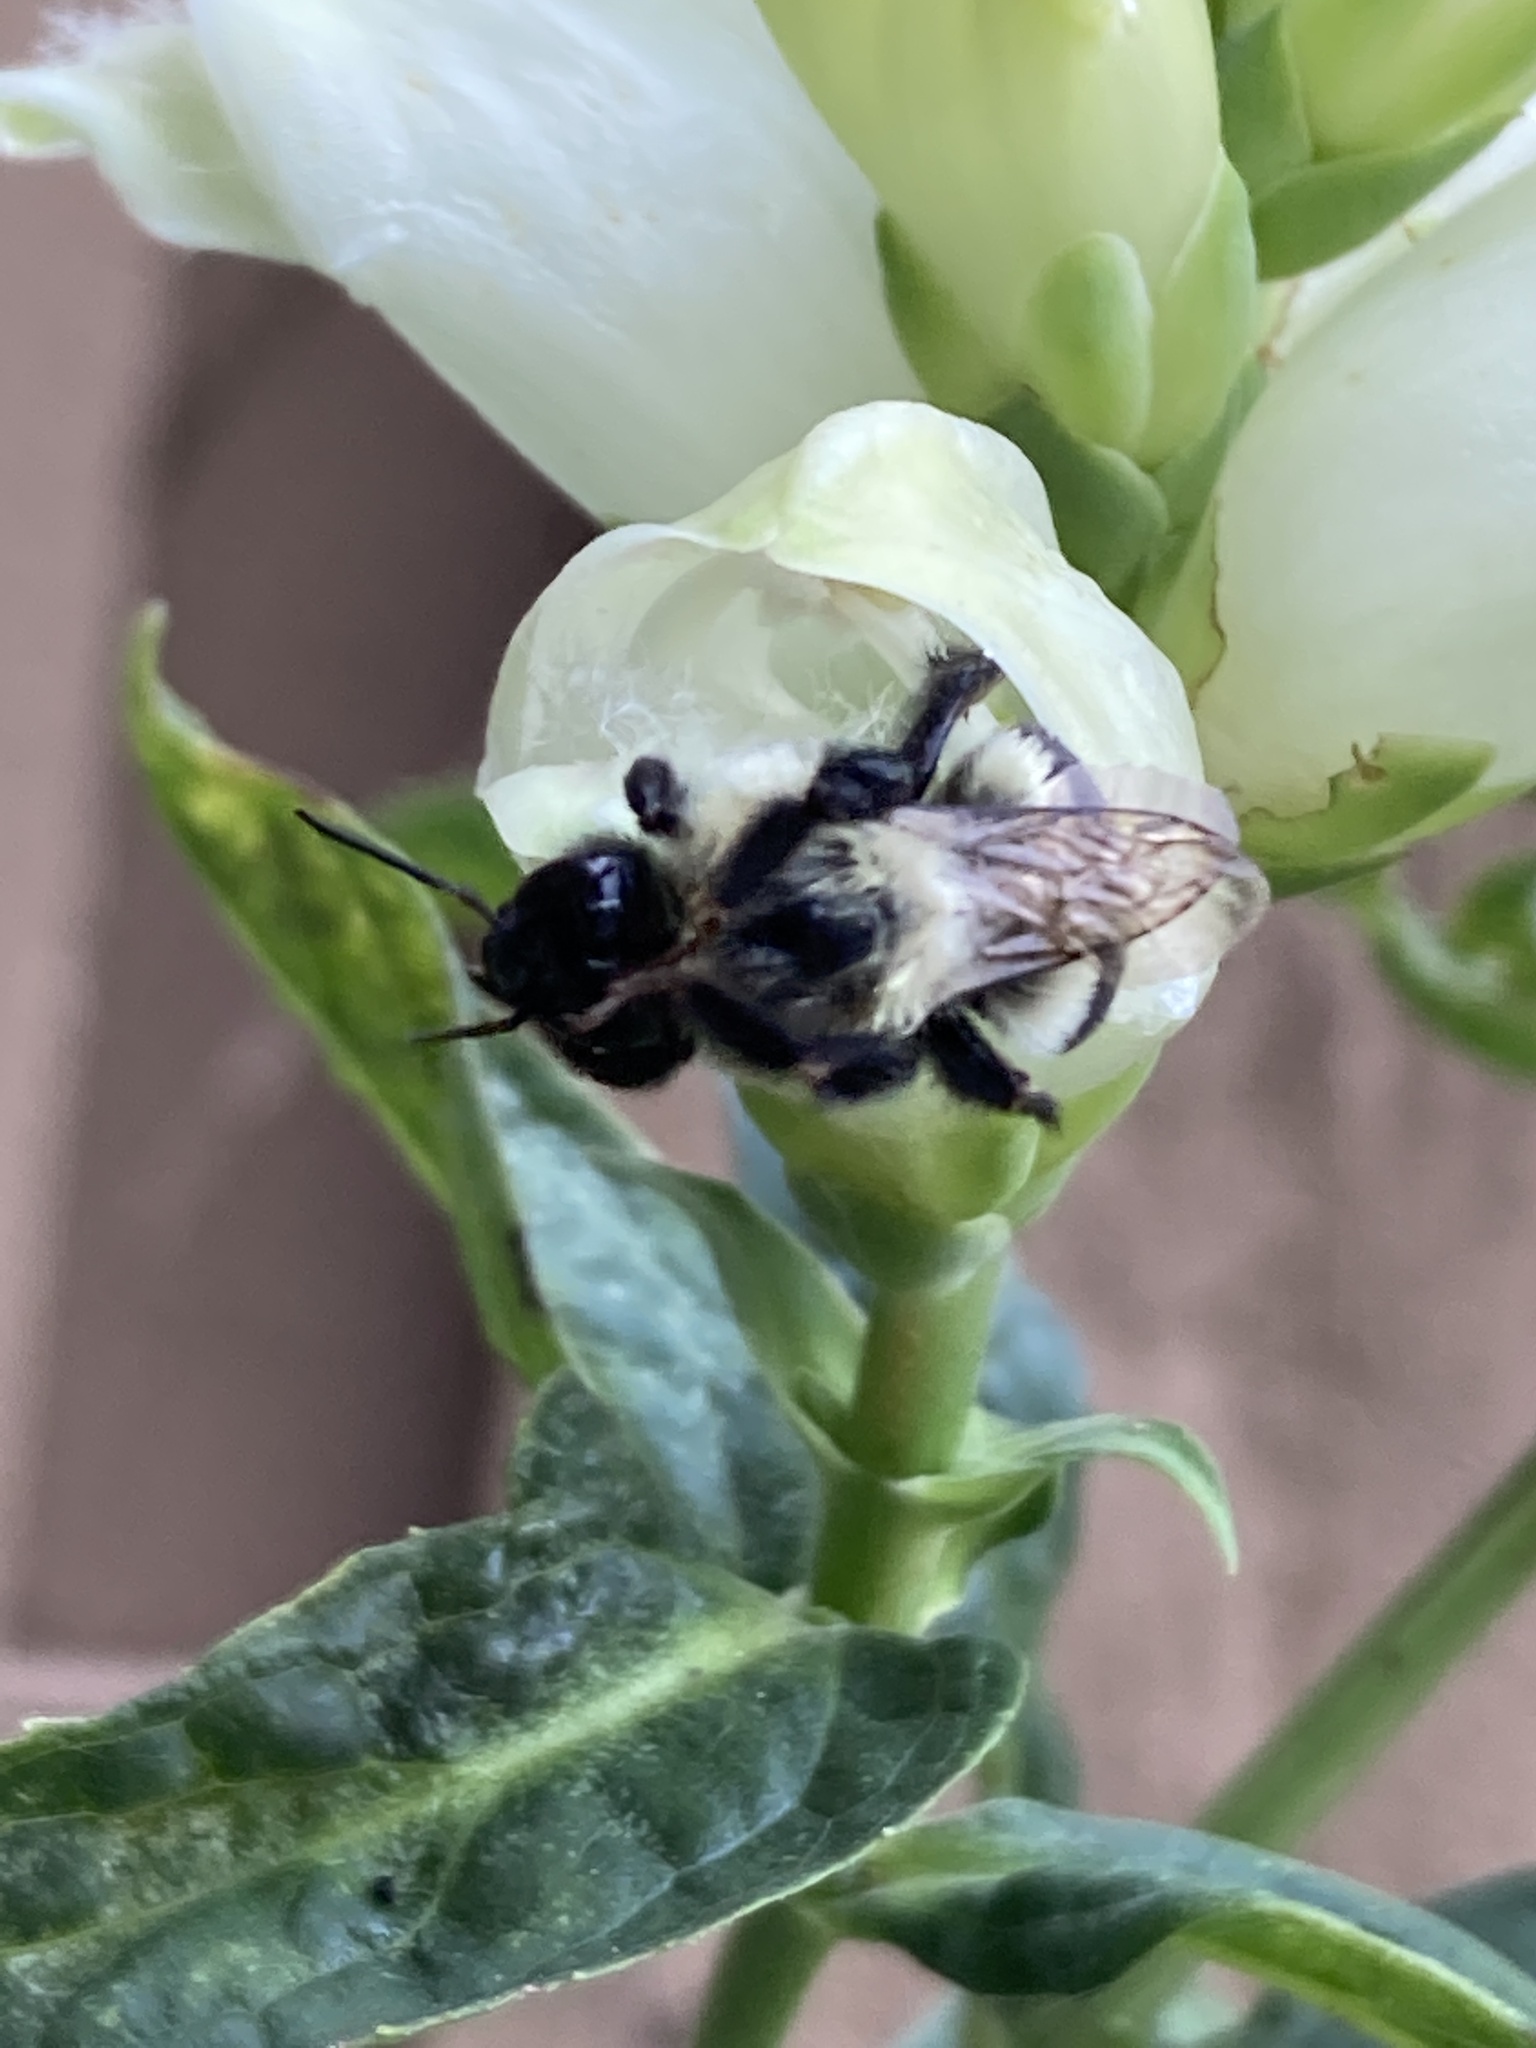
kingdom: Animalia
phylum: Arthropoda
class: Insecta
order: Hymenoptera
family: Apidae
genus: Bombus
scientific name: Bombus impatiens
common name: Common eastern bumble bee
